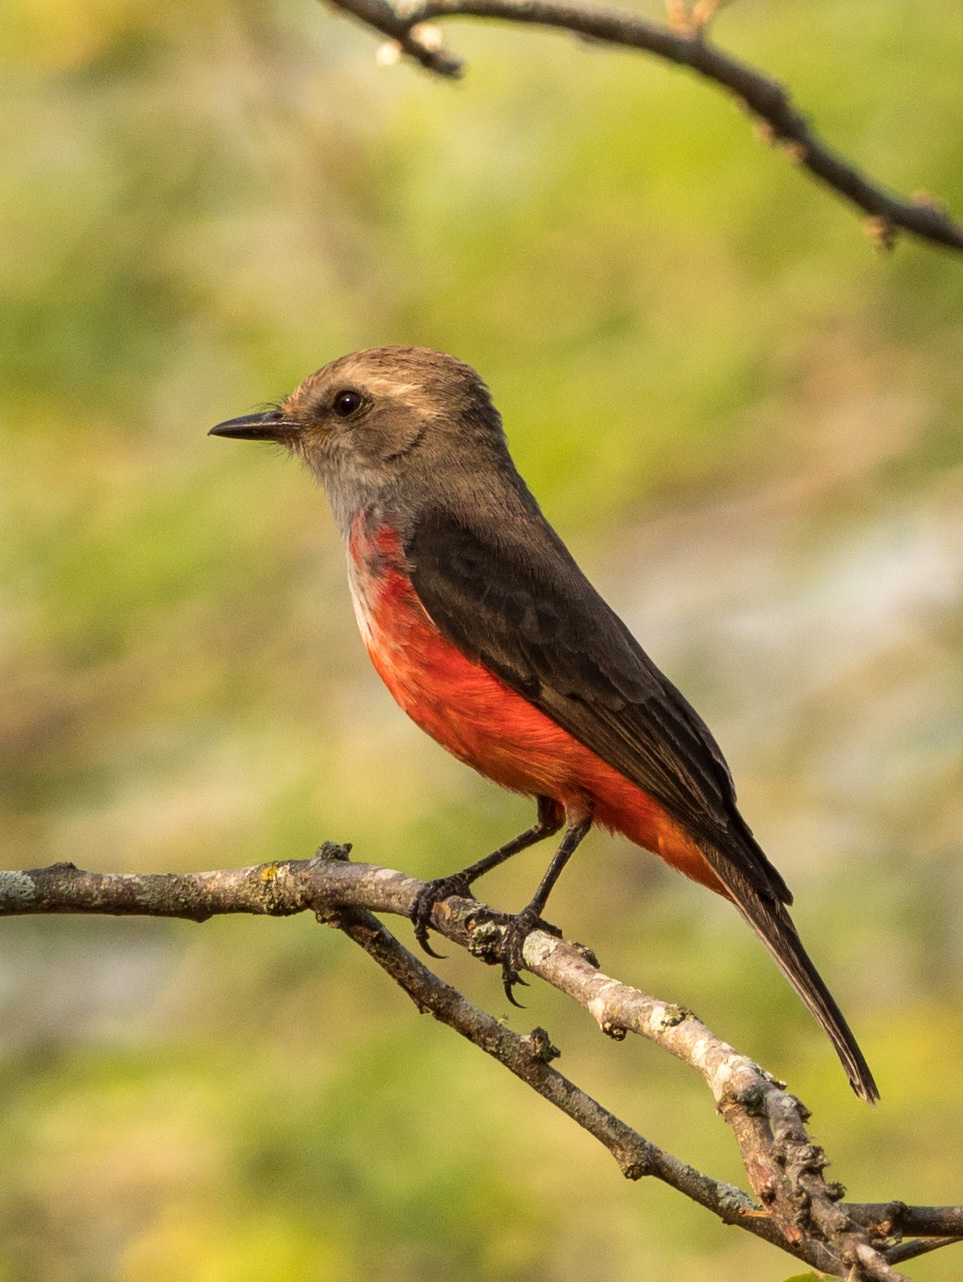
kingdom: Animalia
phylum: Chordata
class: Aves
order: Passeriformes
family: Tyrannidae
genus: Pyrocephalus
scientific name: Pyrocephalus rubinus
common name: Vermilion flycatcher
